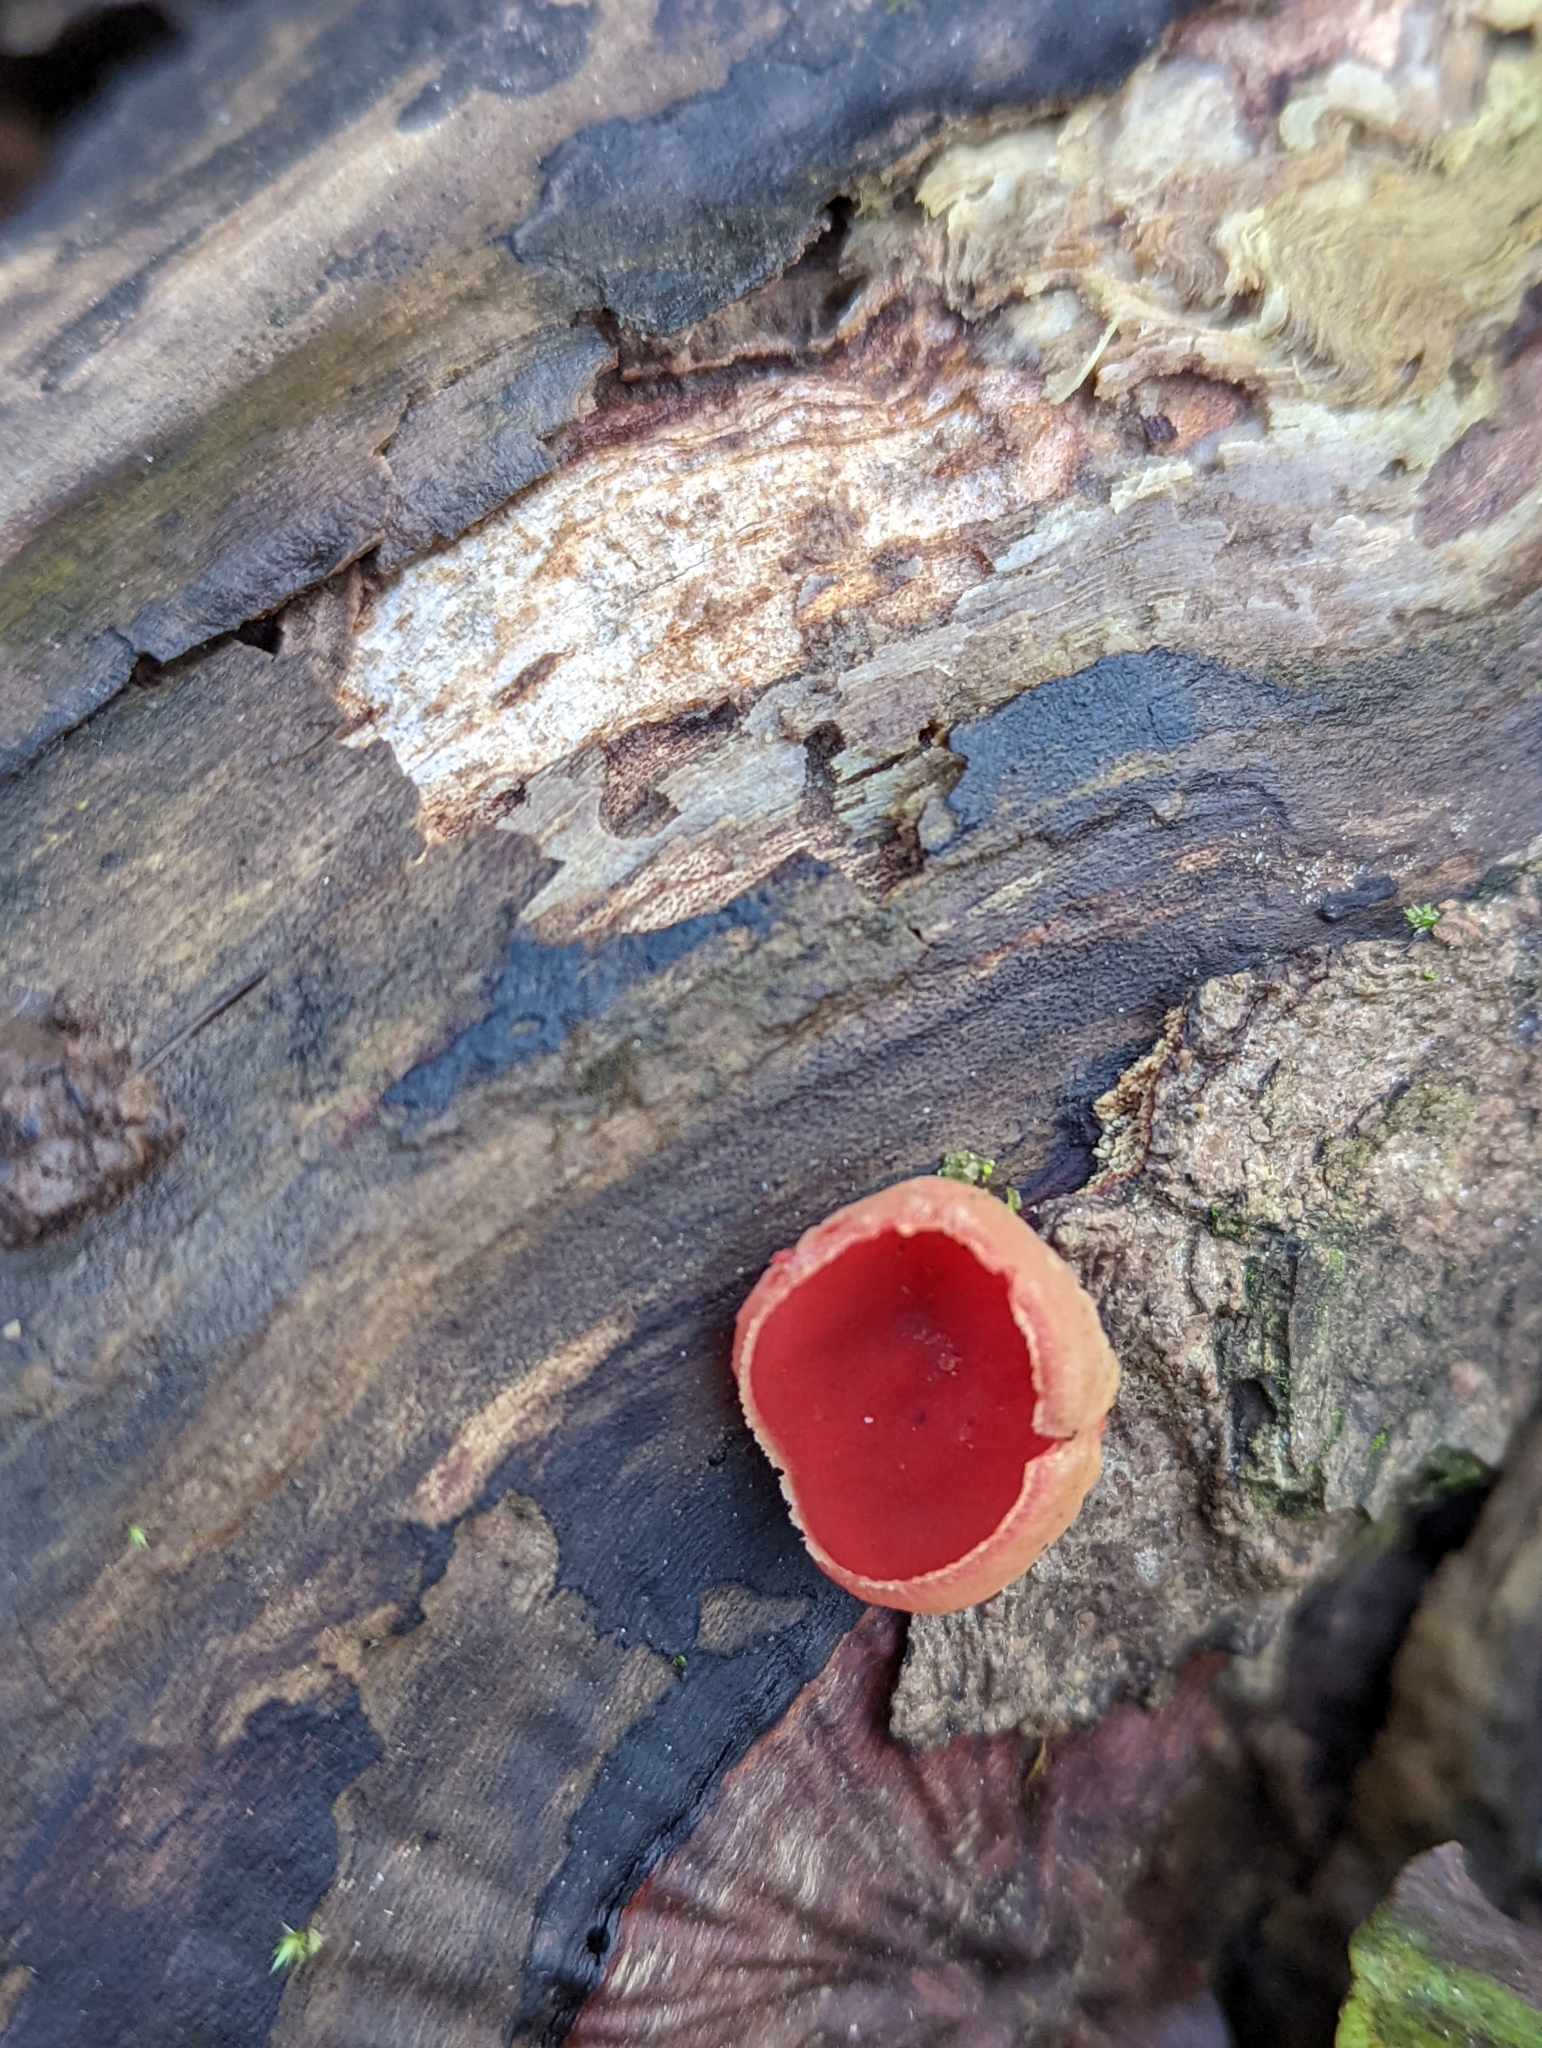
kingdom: Fungi
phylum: Ascomycota
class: Pezizomycetes
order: Pezizales
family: Sarcoscyphaceae
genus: Sarcoscypha
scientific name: Sarcoscypha
